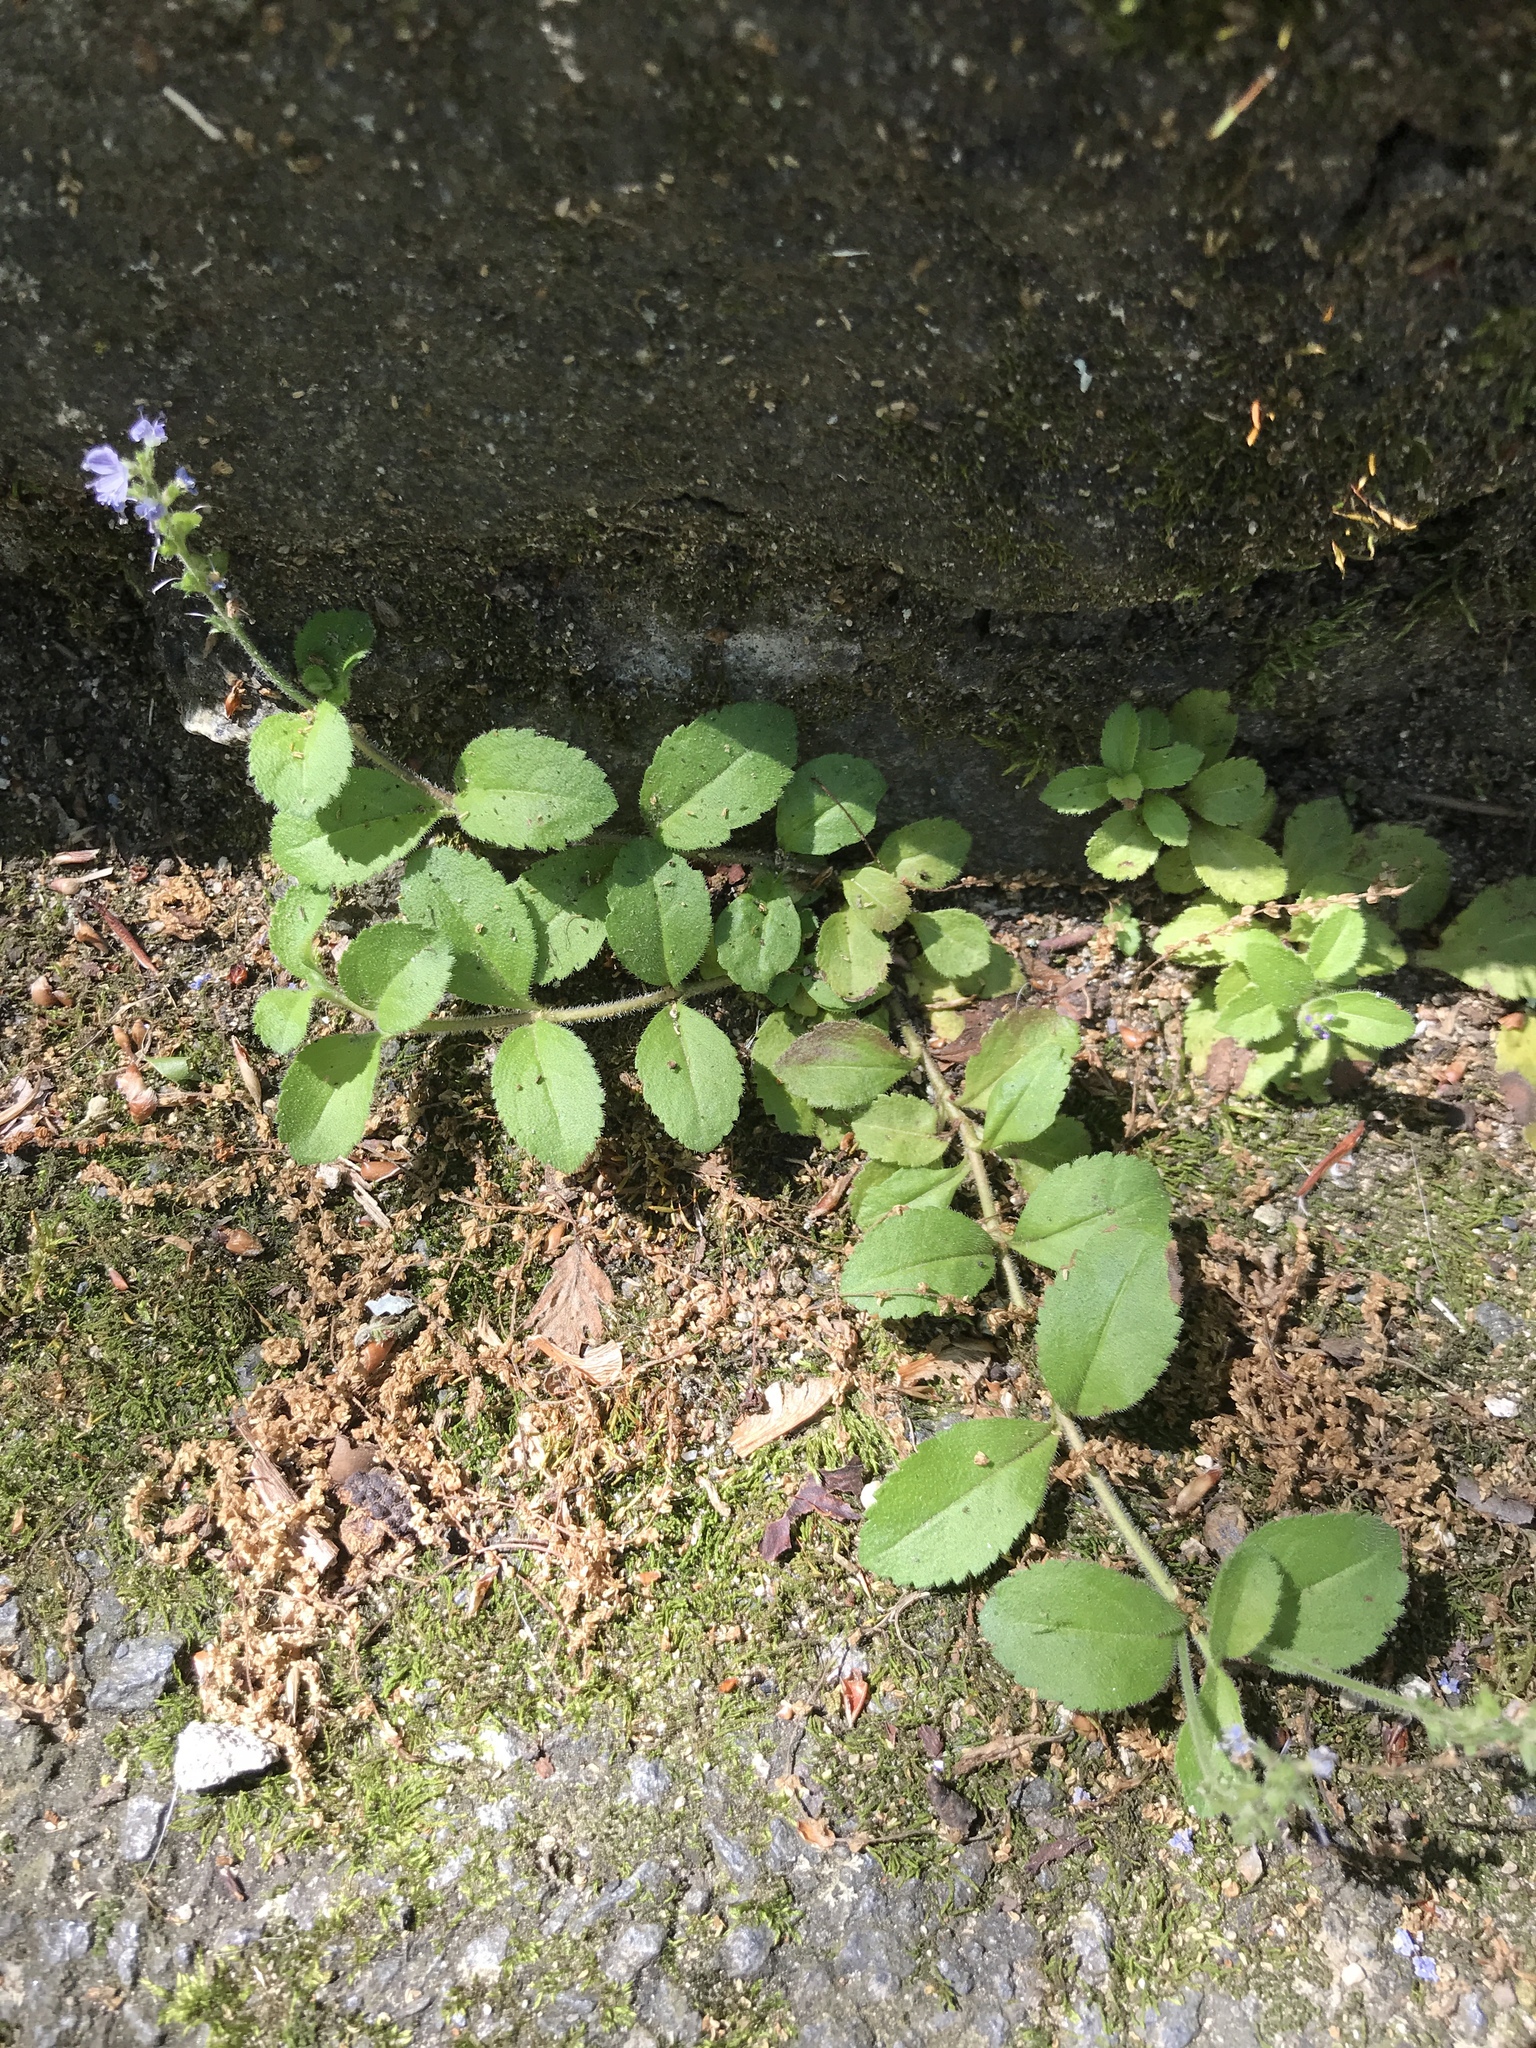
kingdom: Plantae
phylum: Tracheophyta
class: Magnoliopsida
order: Lamiales
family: Plantaginaceae
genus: Veronica
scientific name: Veronica officinalis
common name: Common speedwell
